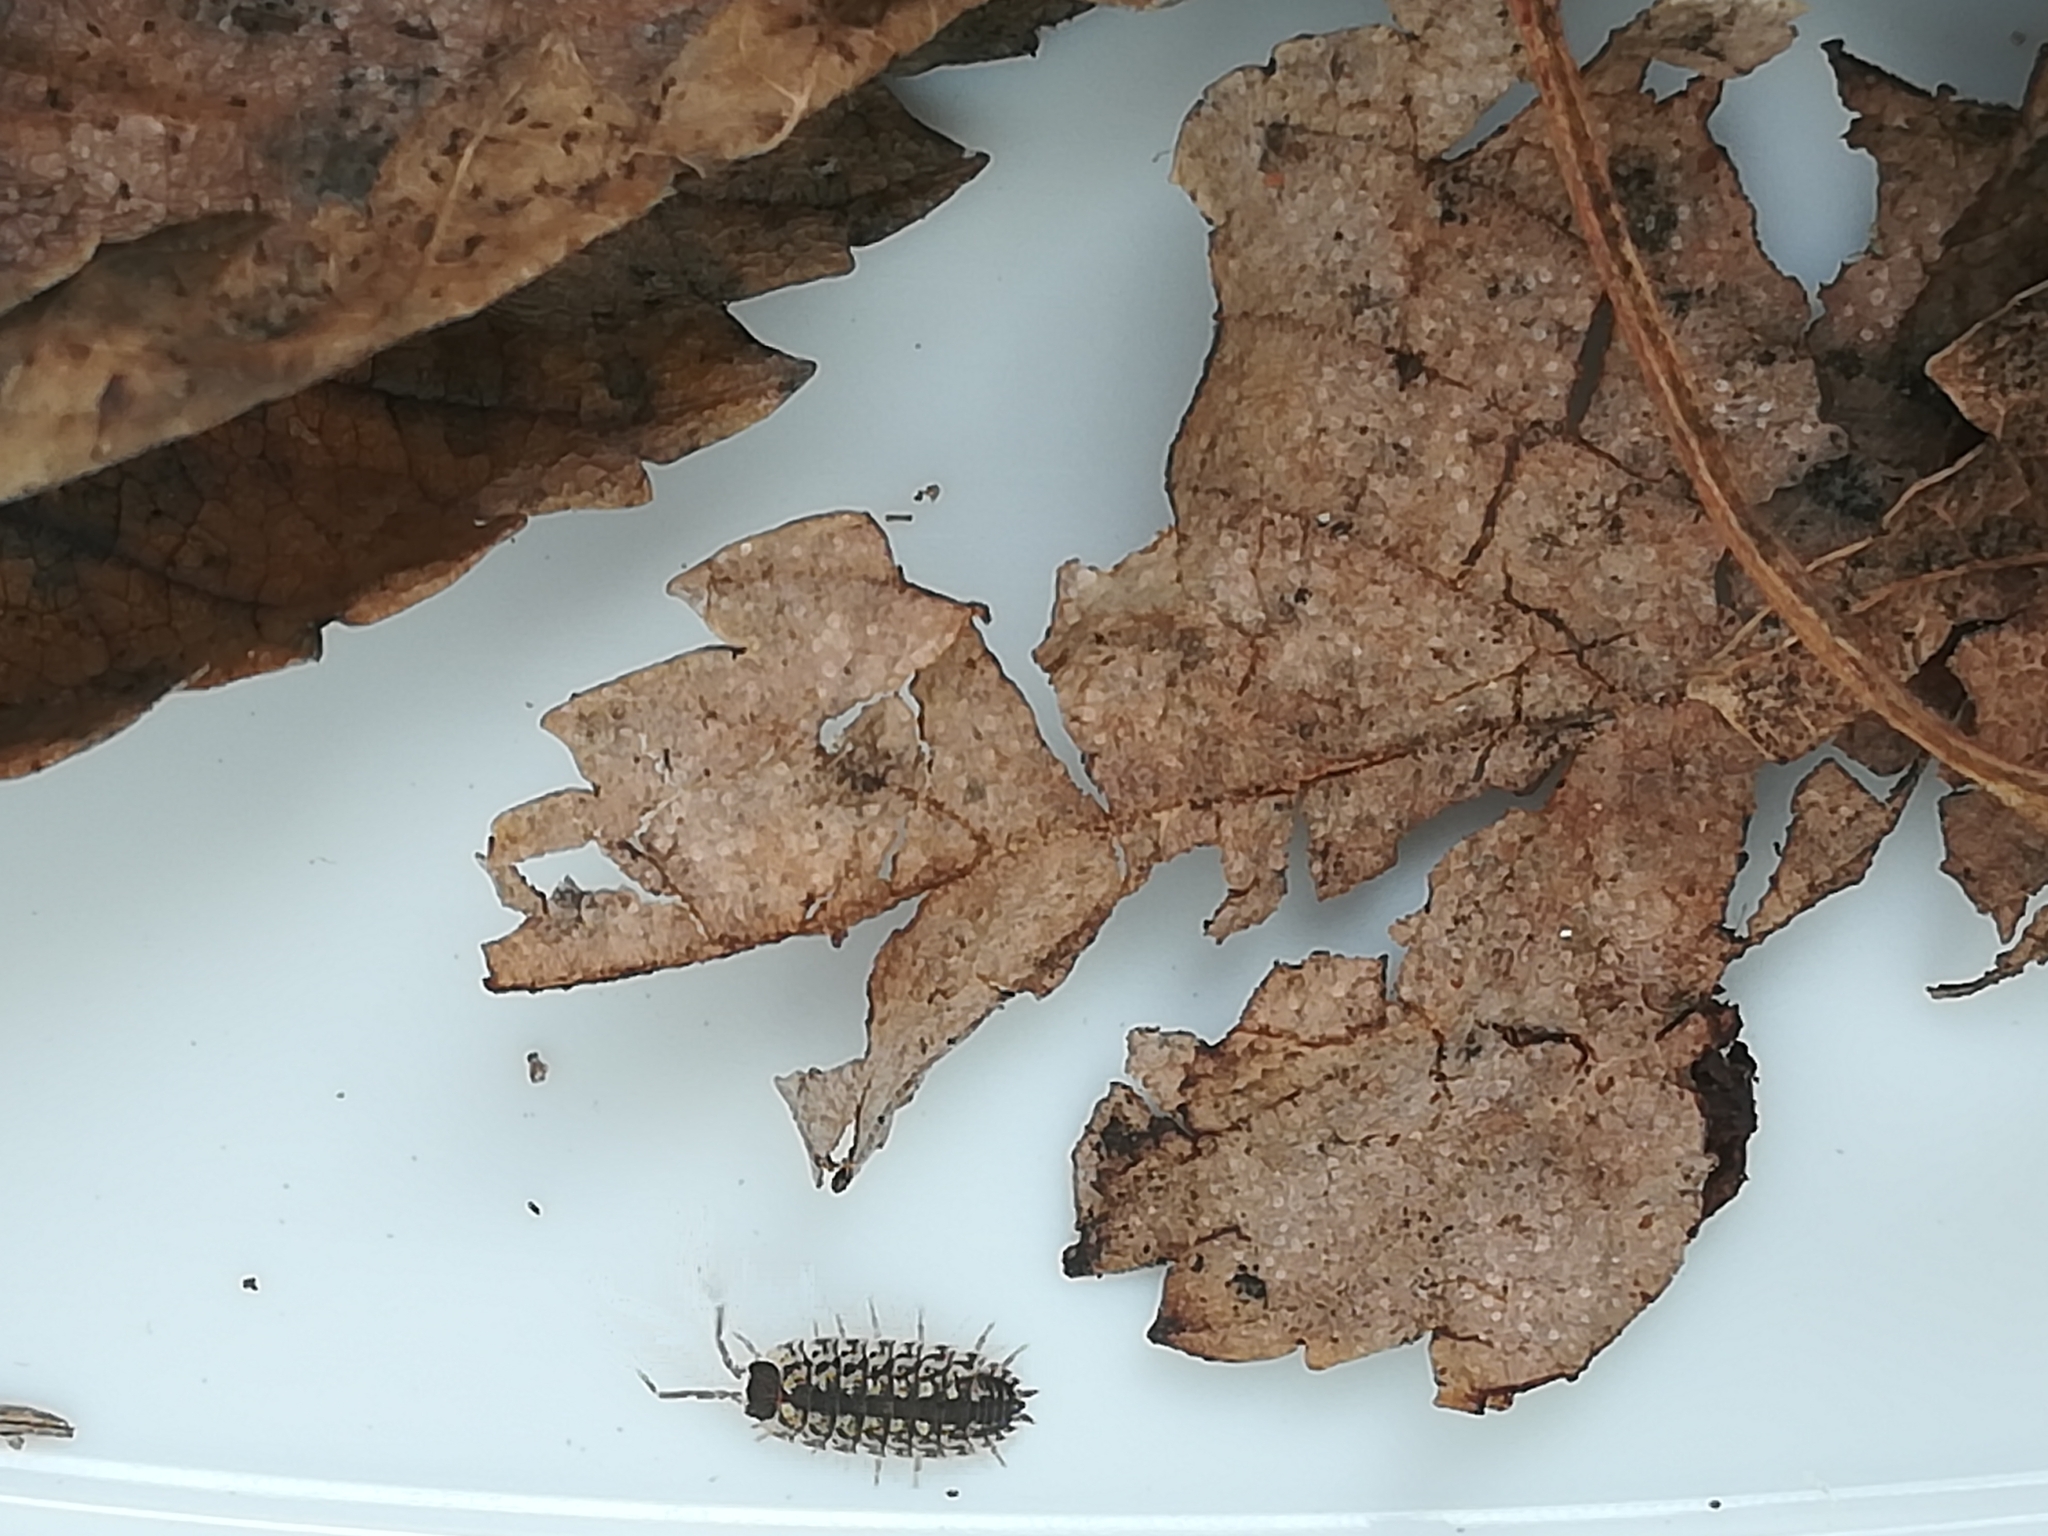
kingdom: Animalia
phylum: Arthropoda
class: Malacostraca
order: Isopoda
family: Porcellionidae
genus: Porcellio
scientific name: Porcellio spinicornis
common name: Painted woodlouse
